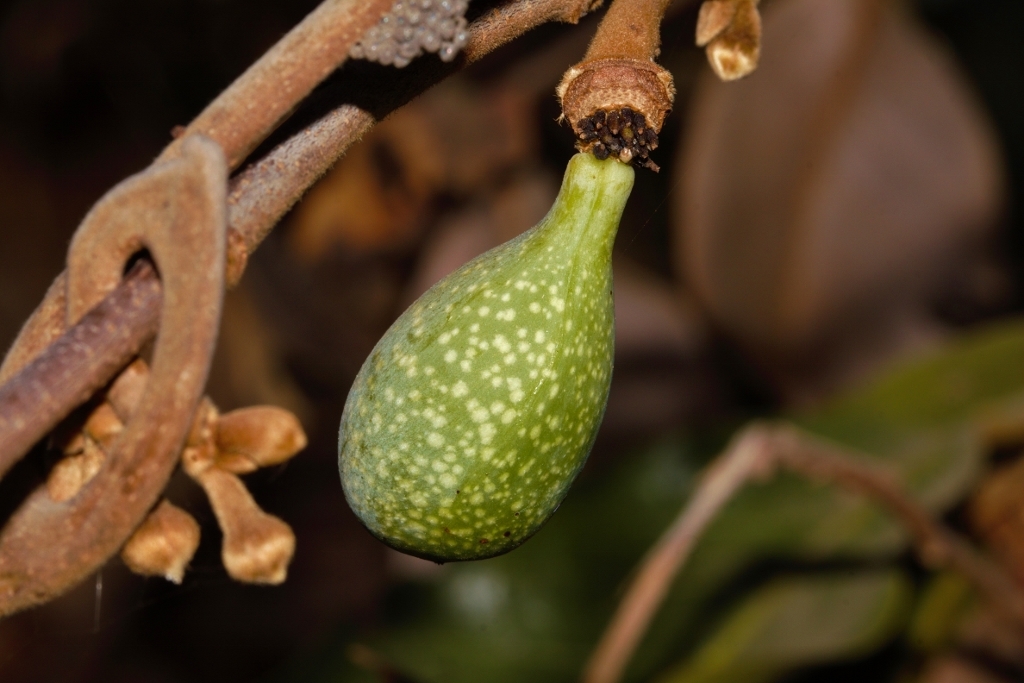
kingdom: Plantae
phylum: Tracheophyta
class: Magnoliopsida
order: Magnoliales
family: Annonaceae
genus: Artabotrys
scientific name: Artabotrys brachypetalus
